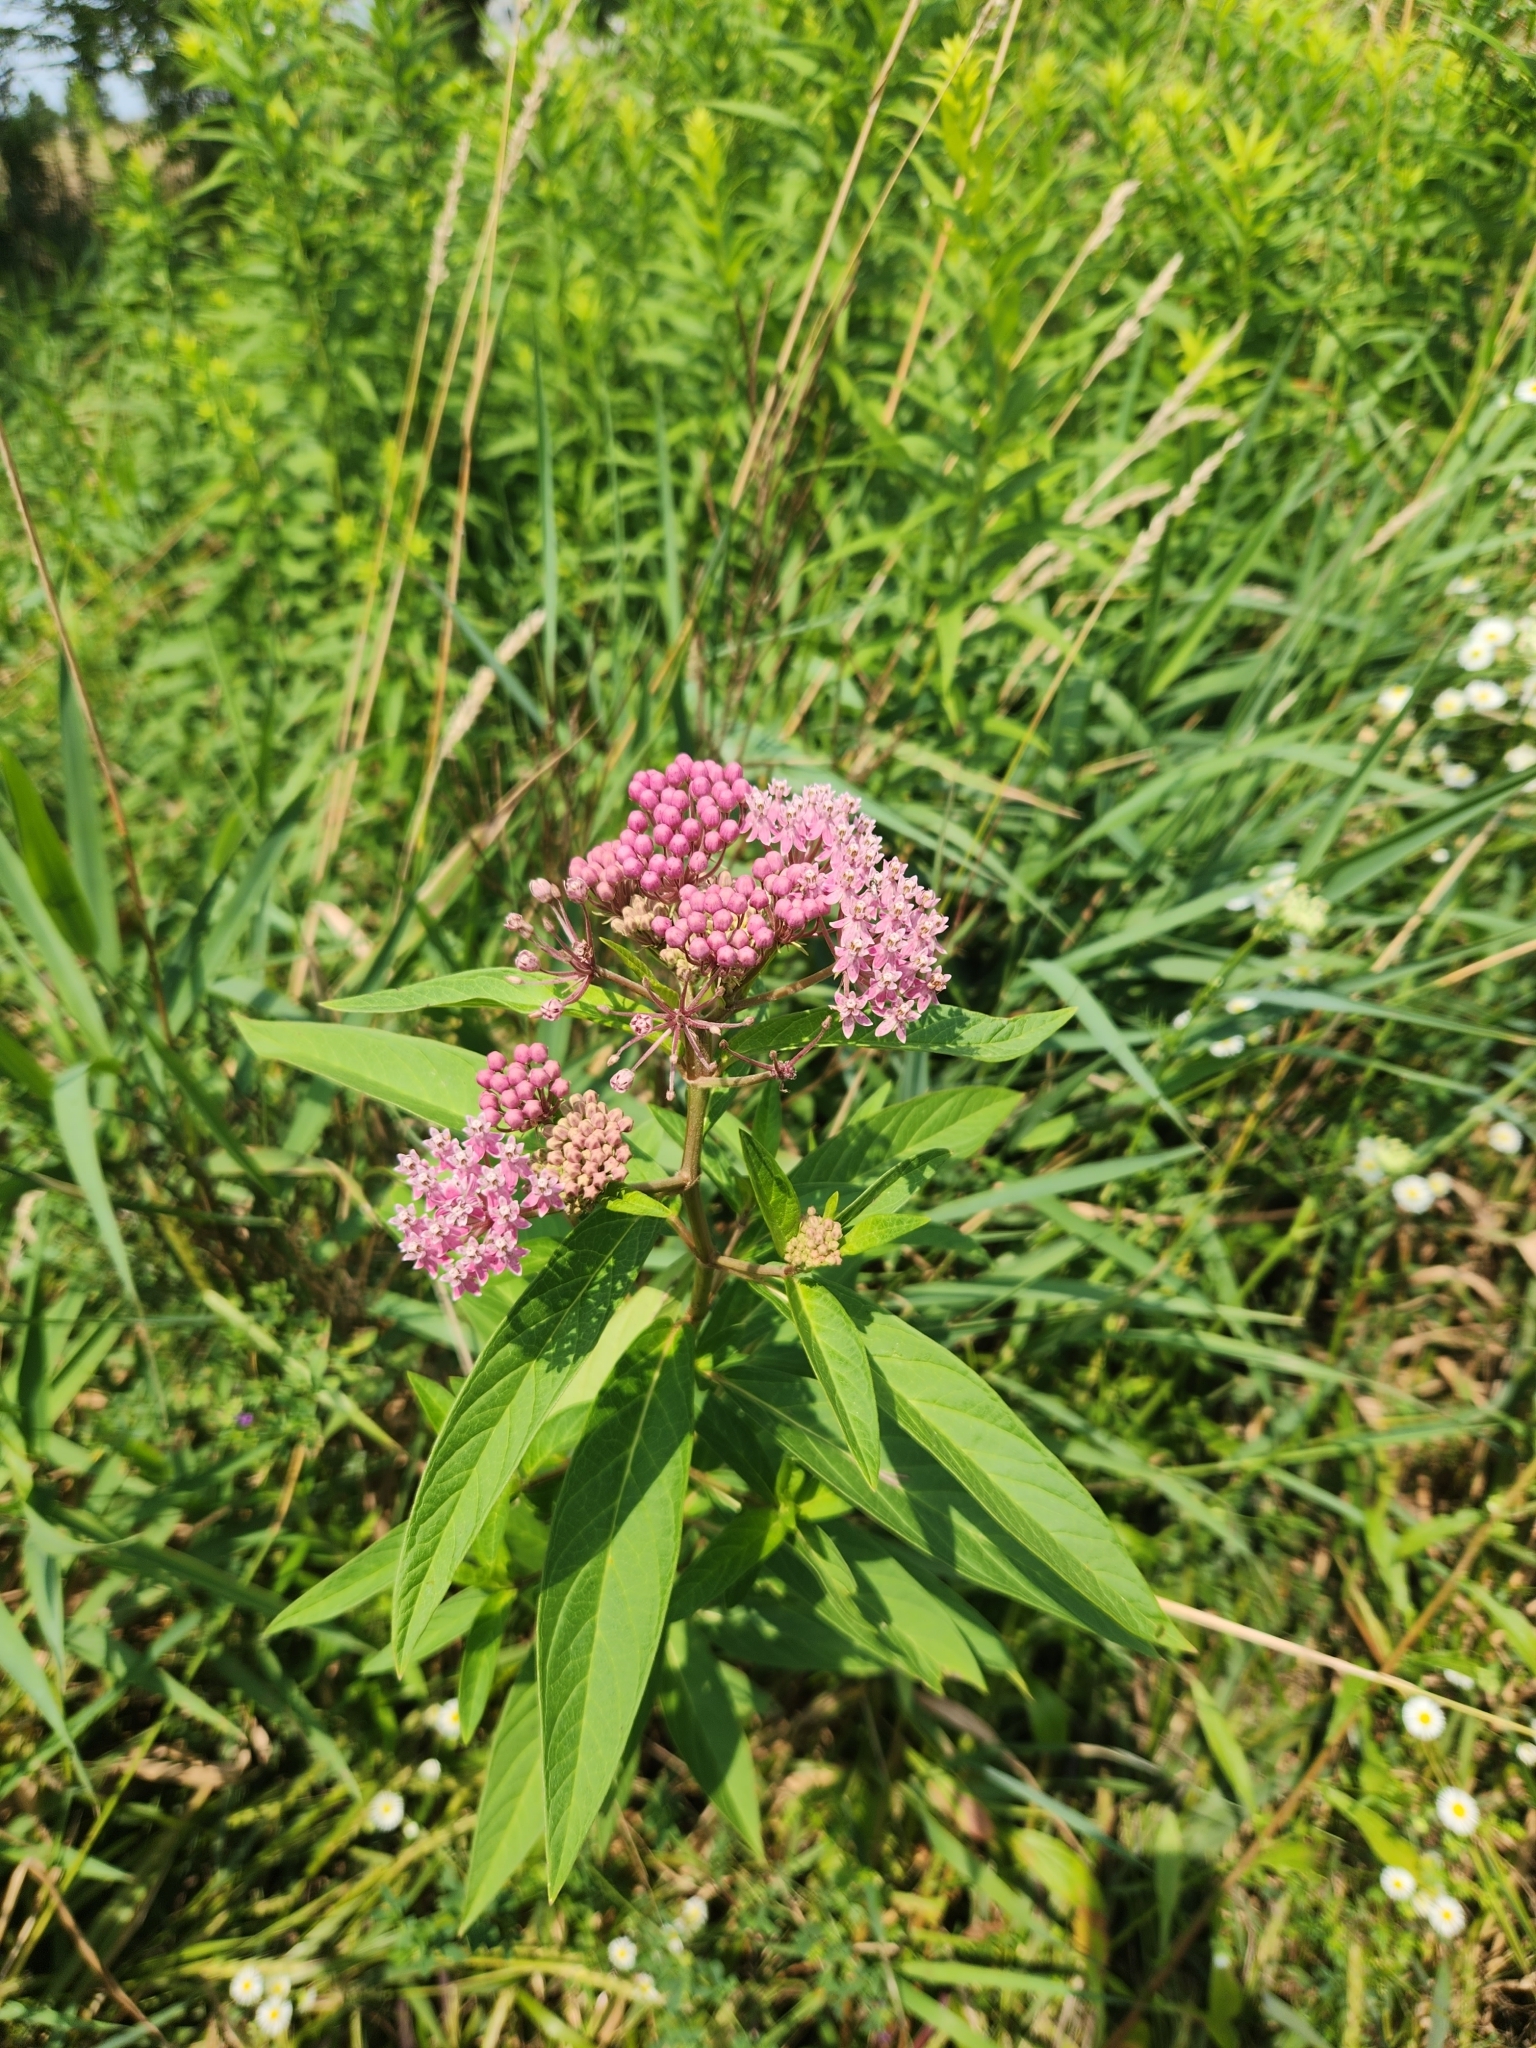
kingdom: Plantae
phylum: Tracheophyta
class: Magnoliopsida
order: Gentianales
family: Apocynaceae
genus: Asclepias
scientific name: Asclepias incarnata
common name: Swamp milkweed
